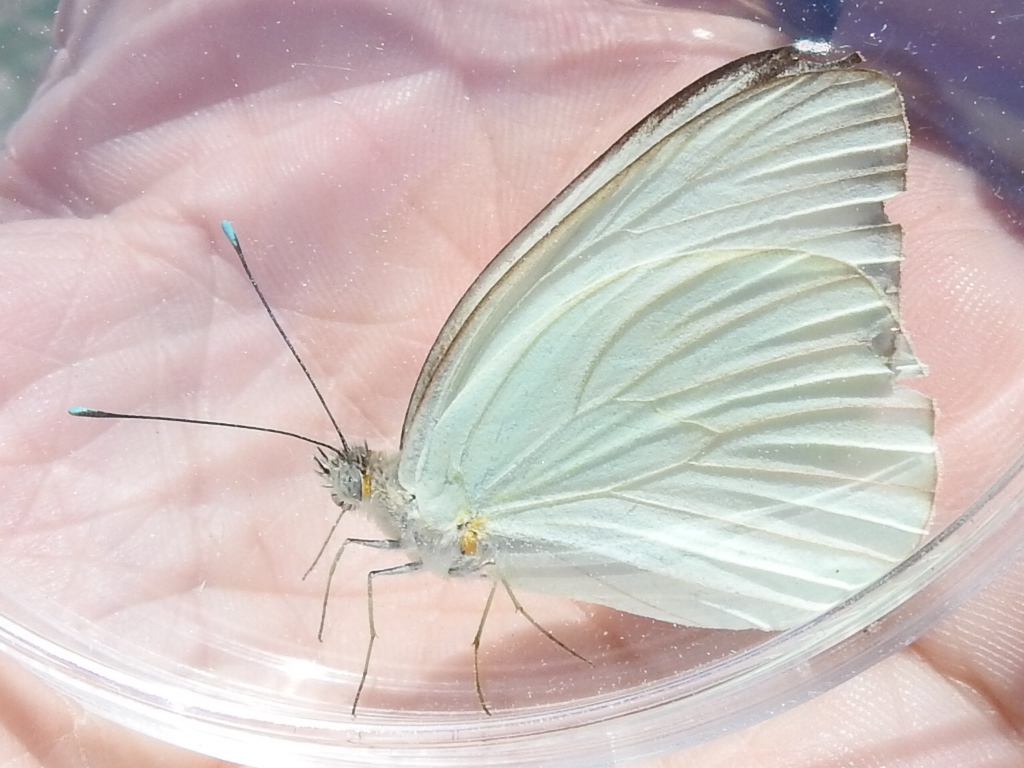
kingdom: Animalia
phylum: Arthropoda
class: Insecta
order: Lepidoptera
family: Pieridae
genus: Ascia
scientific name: Ascia monuste
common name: Great southern white
